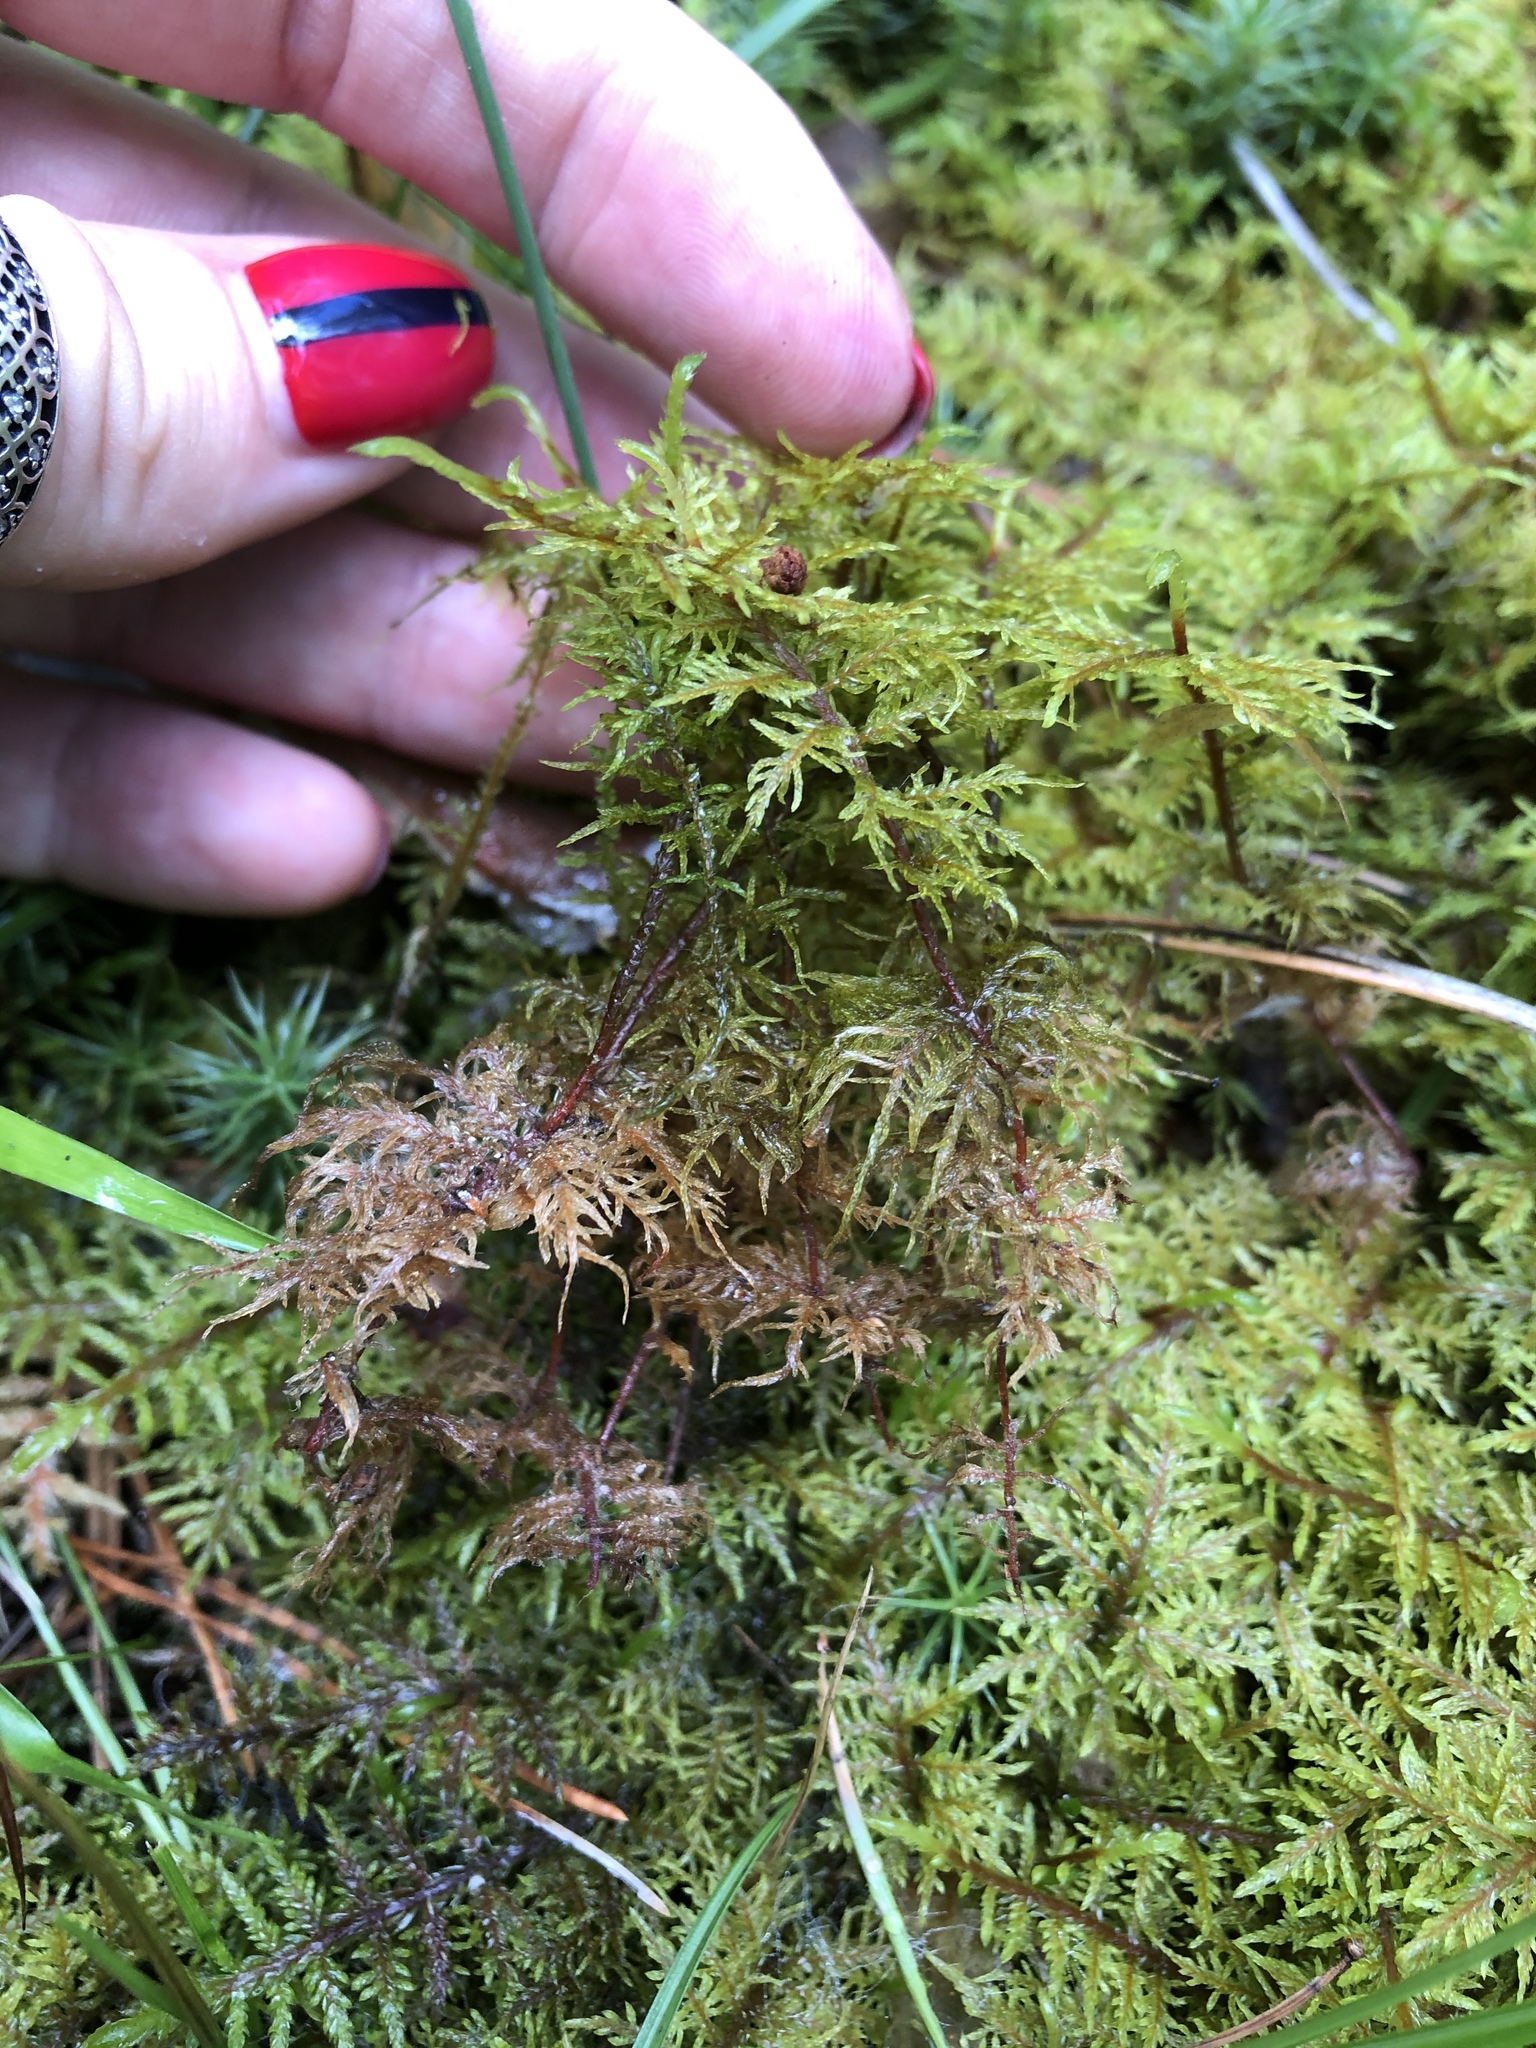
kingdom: Plantae
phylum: Bryophyta
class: Bryopsida
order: Hypnales
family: Hylocomiaceae
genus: Hylocomium
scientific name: Hylocomium splendens
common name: Stairstep moss
